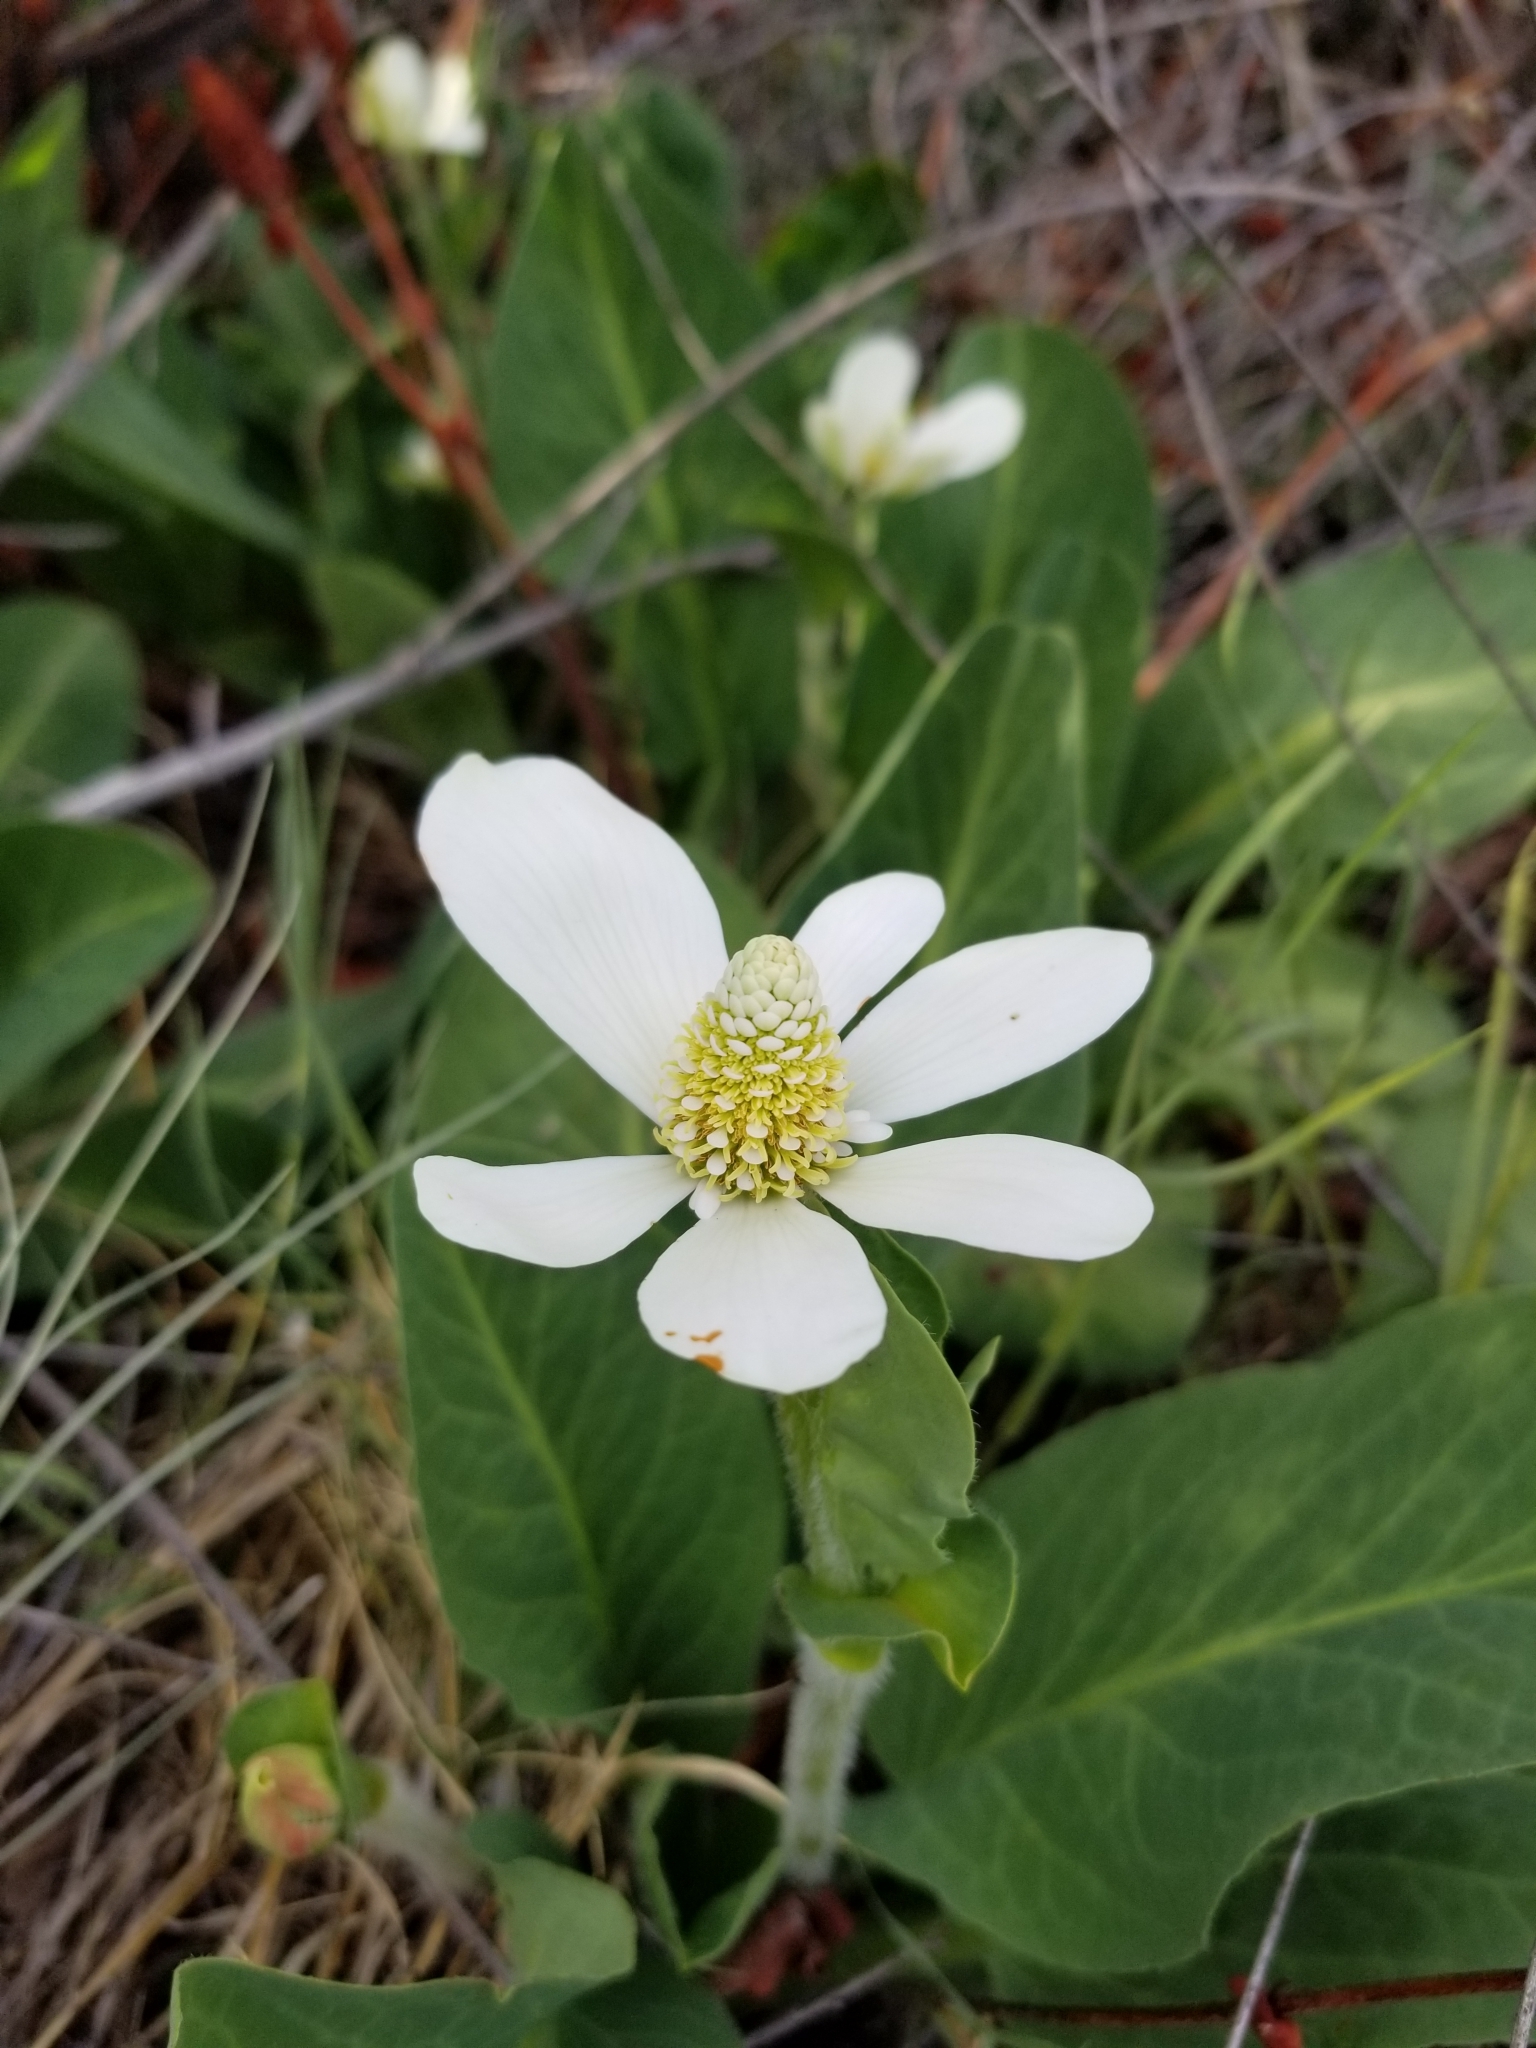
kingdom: Plantae
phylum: Tracheophyta
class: Magnoliopsida
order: Piperales
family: Saururaceae
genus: Anemopsis
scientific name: Anemopsis californica
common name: Apache-beads
